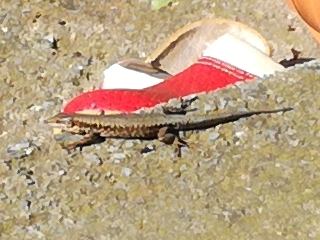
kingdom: Animalia
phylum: Chordata
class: Squamata
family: Lacertidae
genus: Podarcis
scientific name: Podarcis muralis
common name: Common wall lizard
